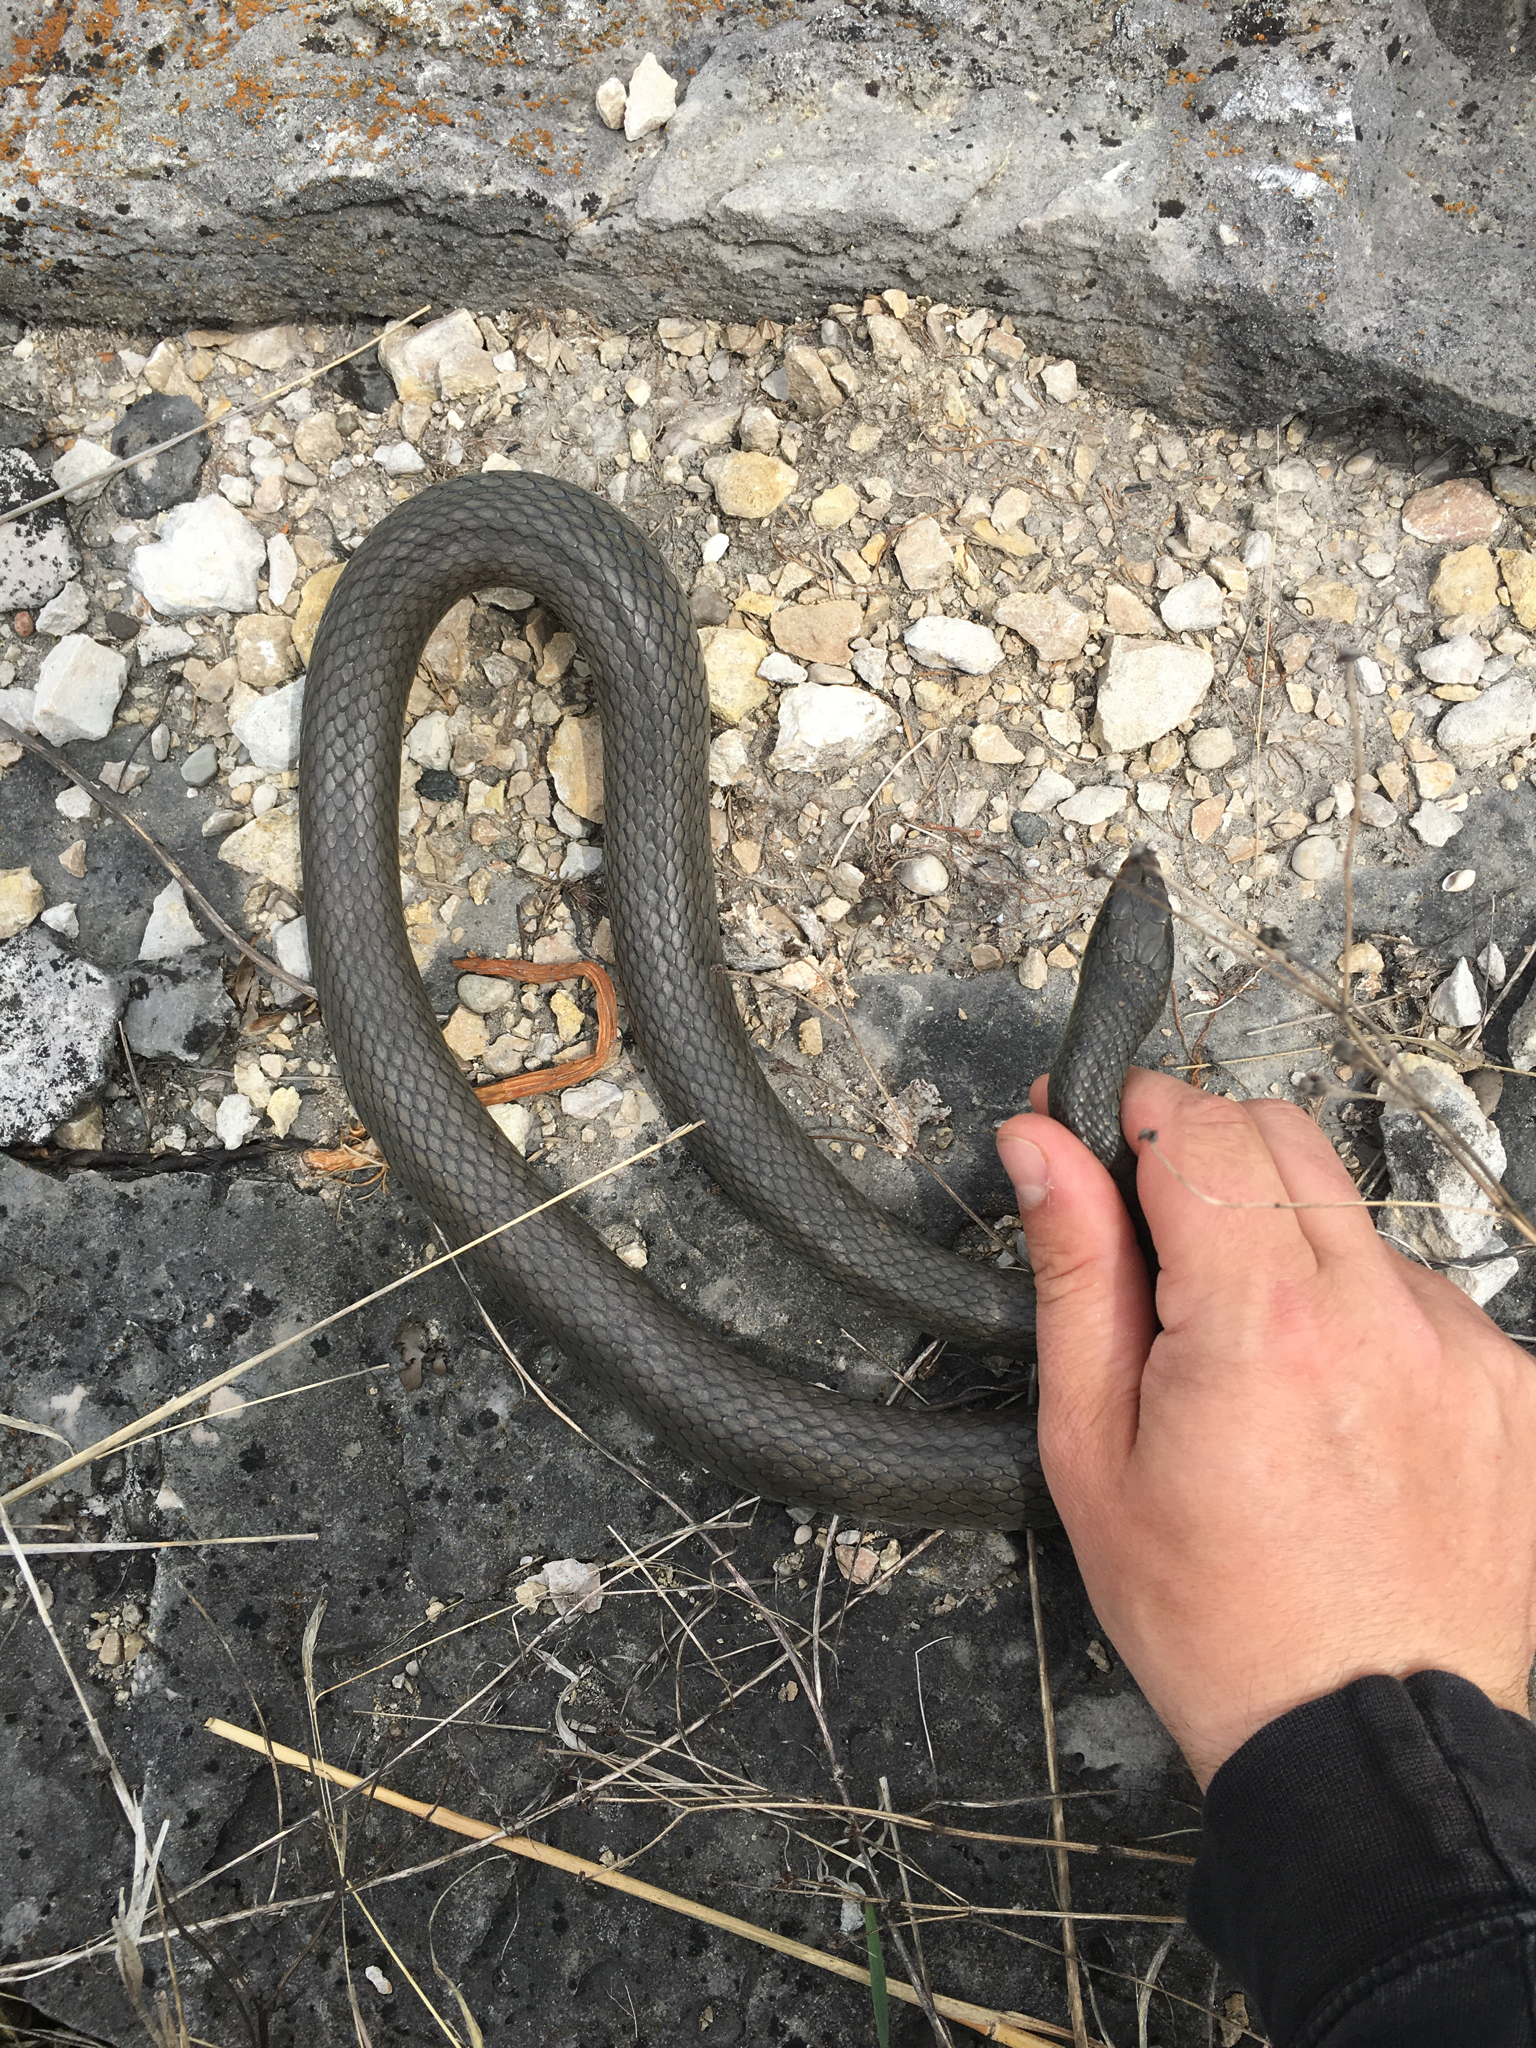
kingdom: Animalia
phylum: Chordata
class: Squamata
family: Colubridae
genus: Coluber
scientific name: Coluber constrictor
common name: Eastern racer
